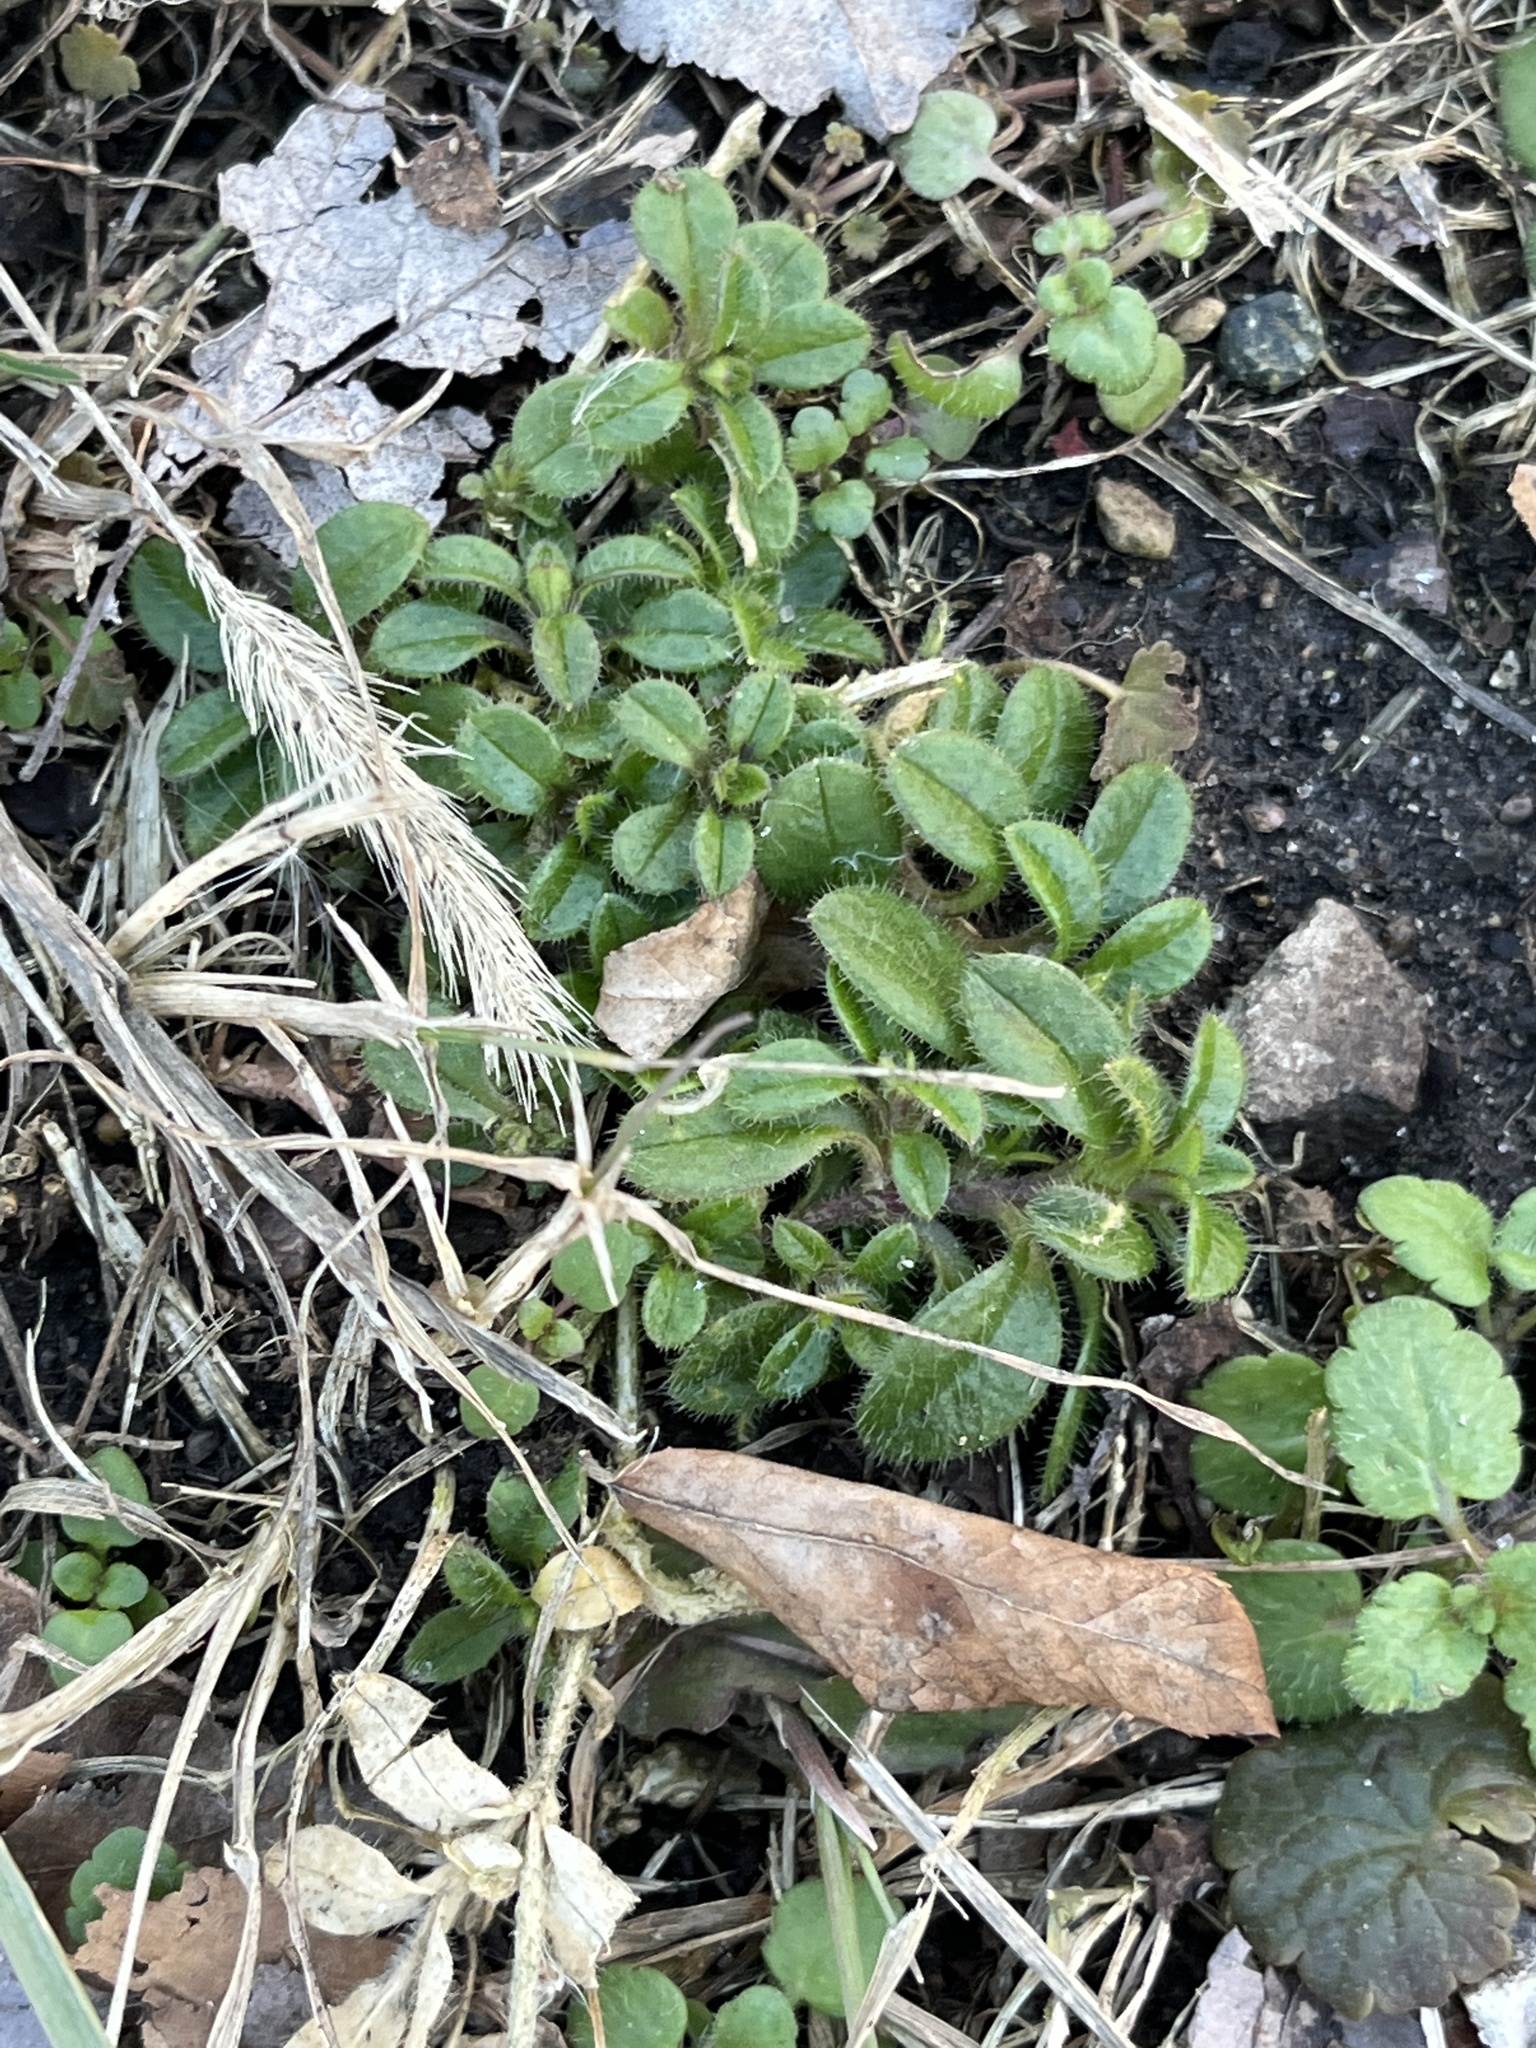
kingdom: Plantae
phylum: Tracheophyta
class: Magnoliopsida
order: Caryophyllales
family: Caryophyllaceae
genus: Cerastium
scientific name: Cerastium fontanum
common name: Common mouse-ear
